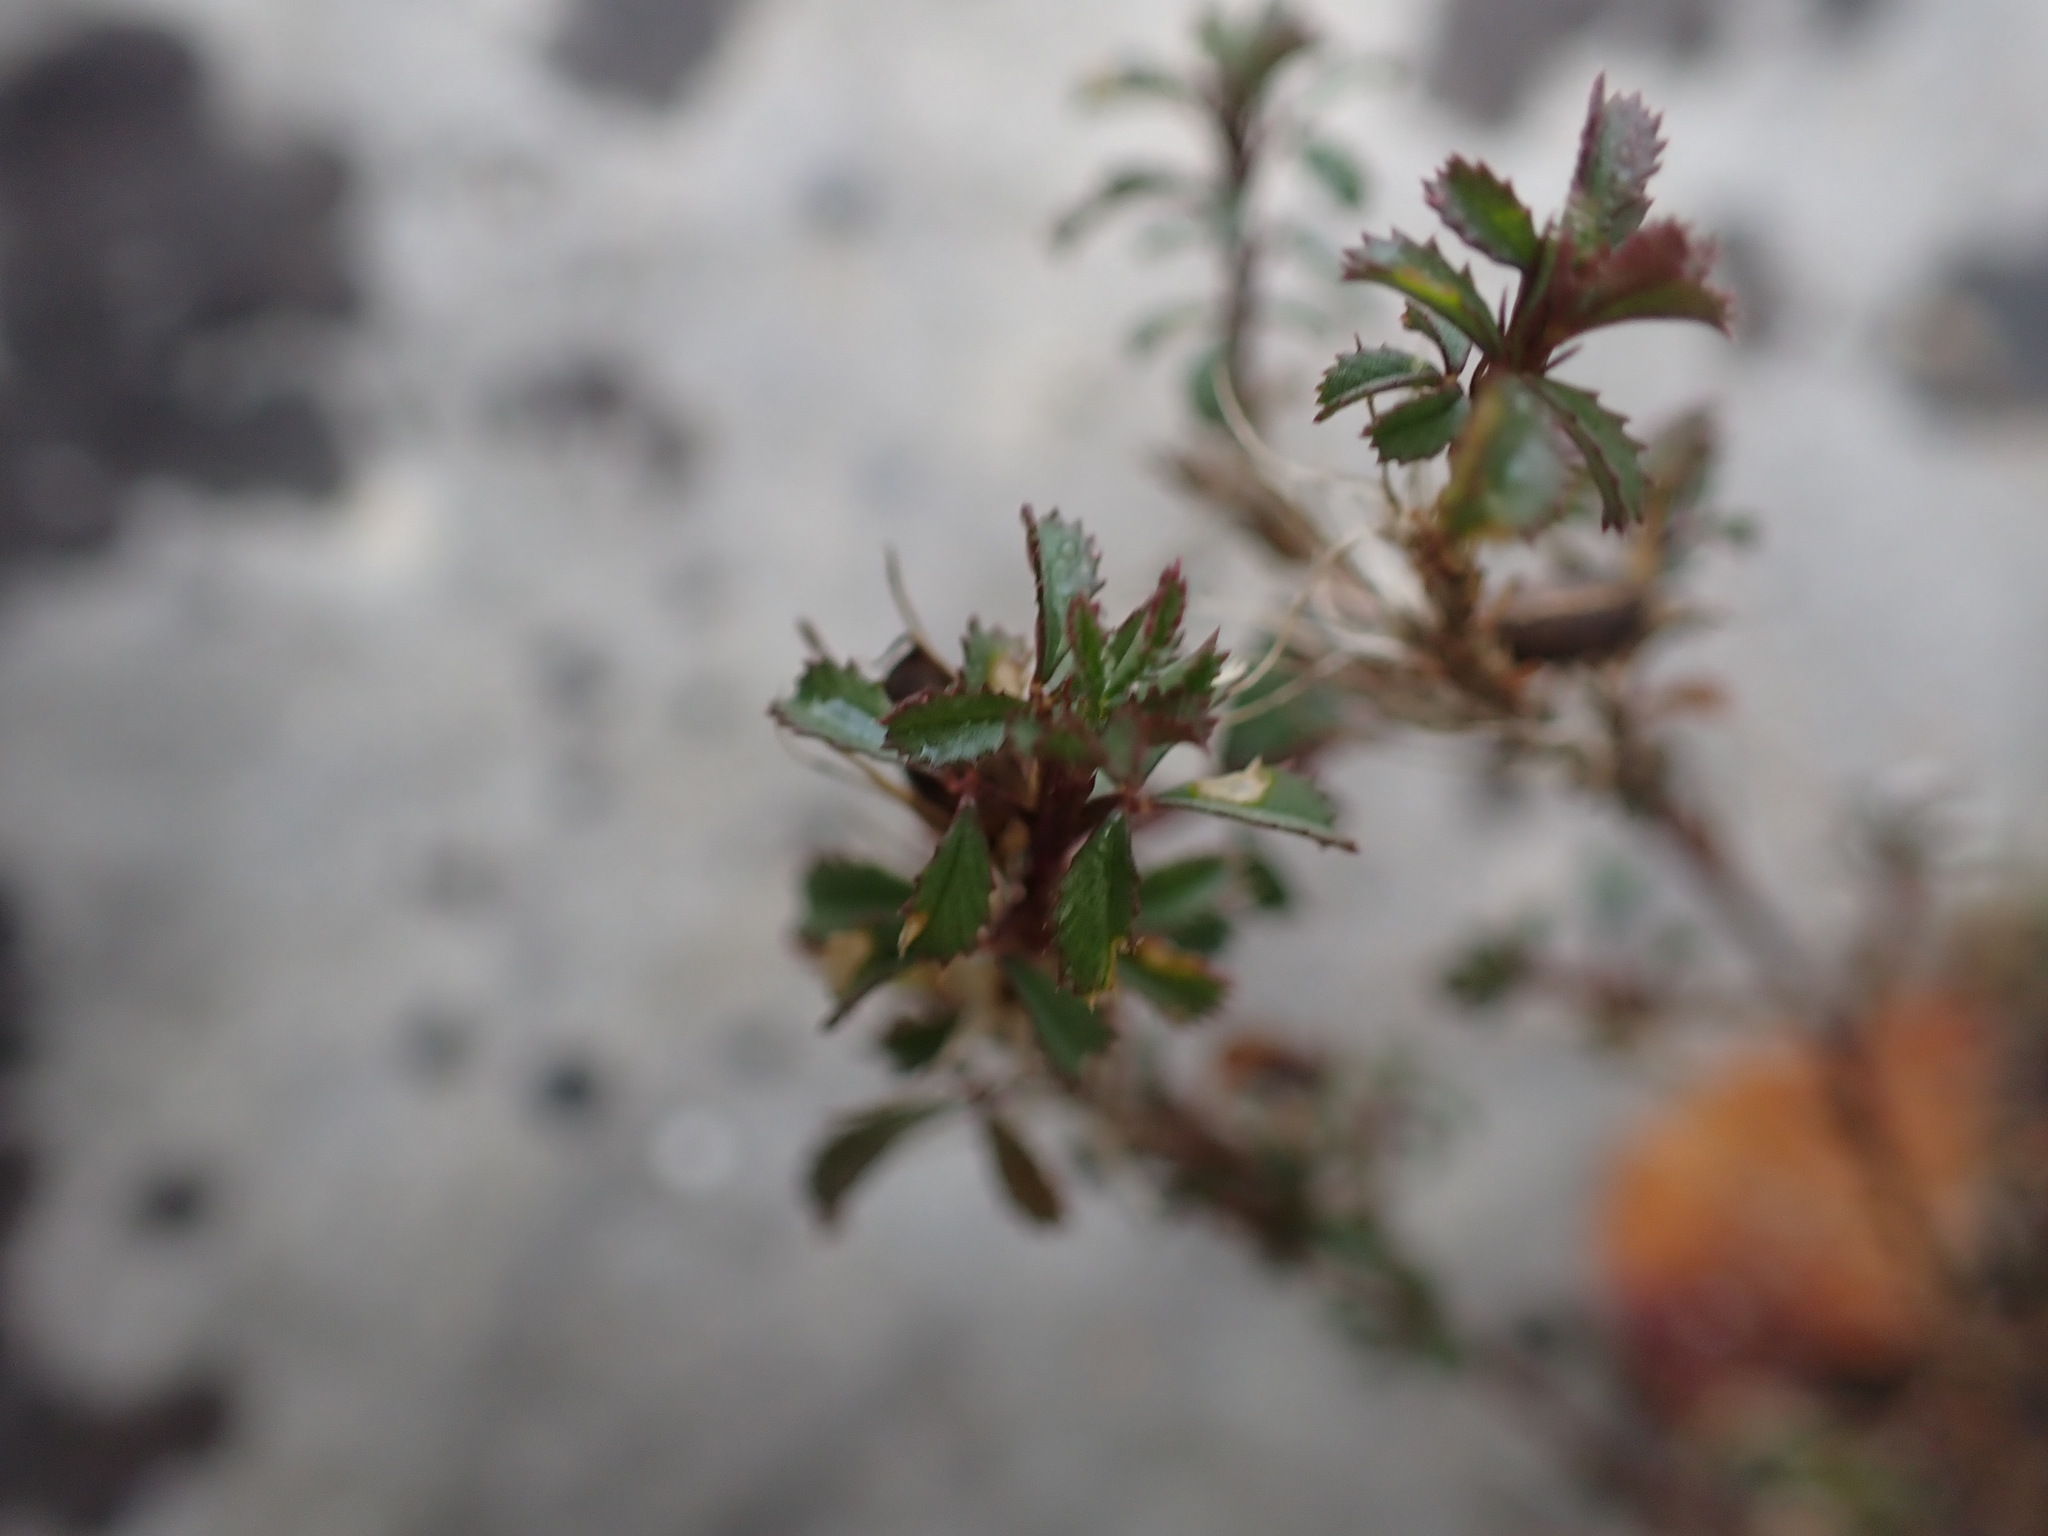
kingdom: Plantae
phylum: Tracheophyta
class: Magnoliopsida
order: Fabales
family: Fabaceae
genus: Ononis
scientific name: Ononis minutissima
